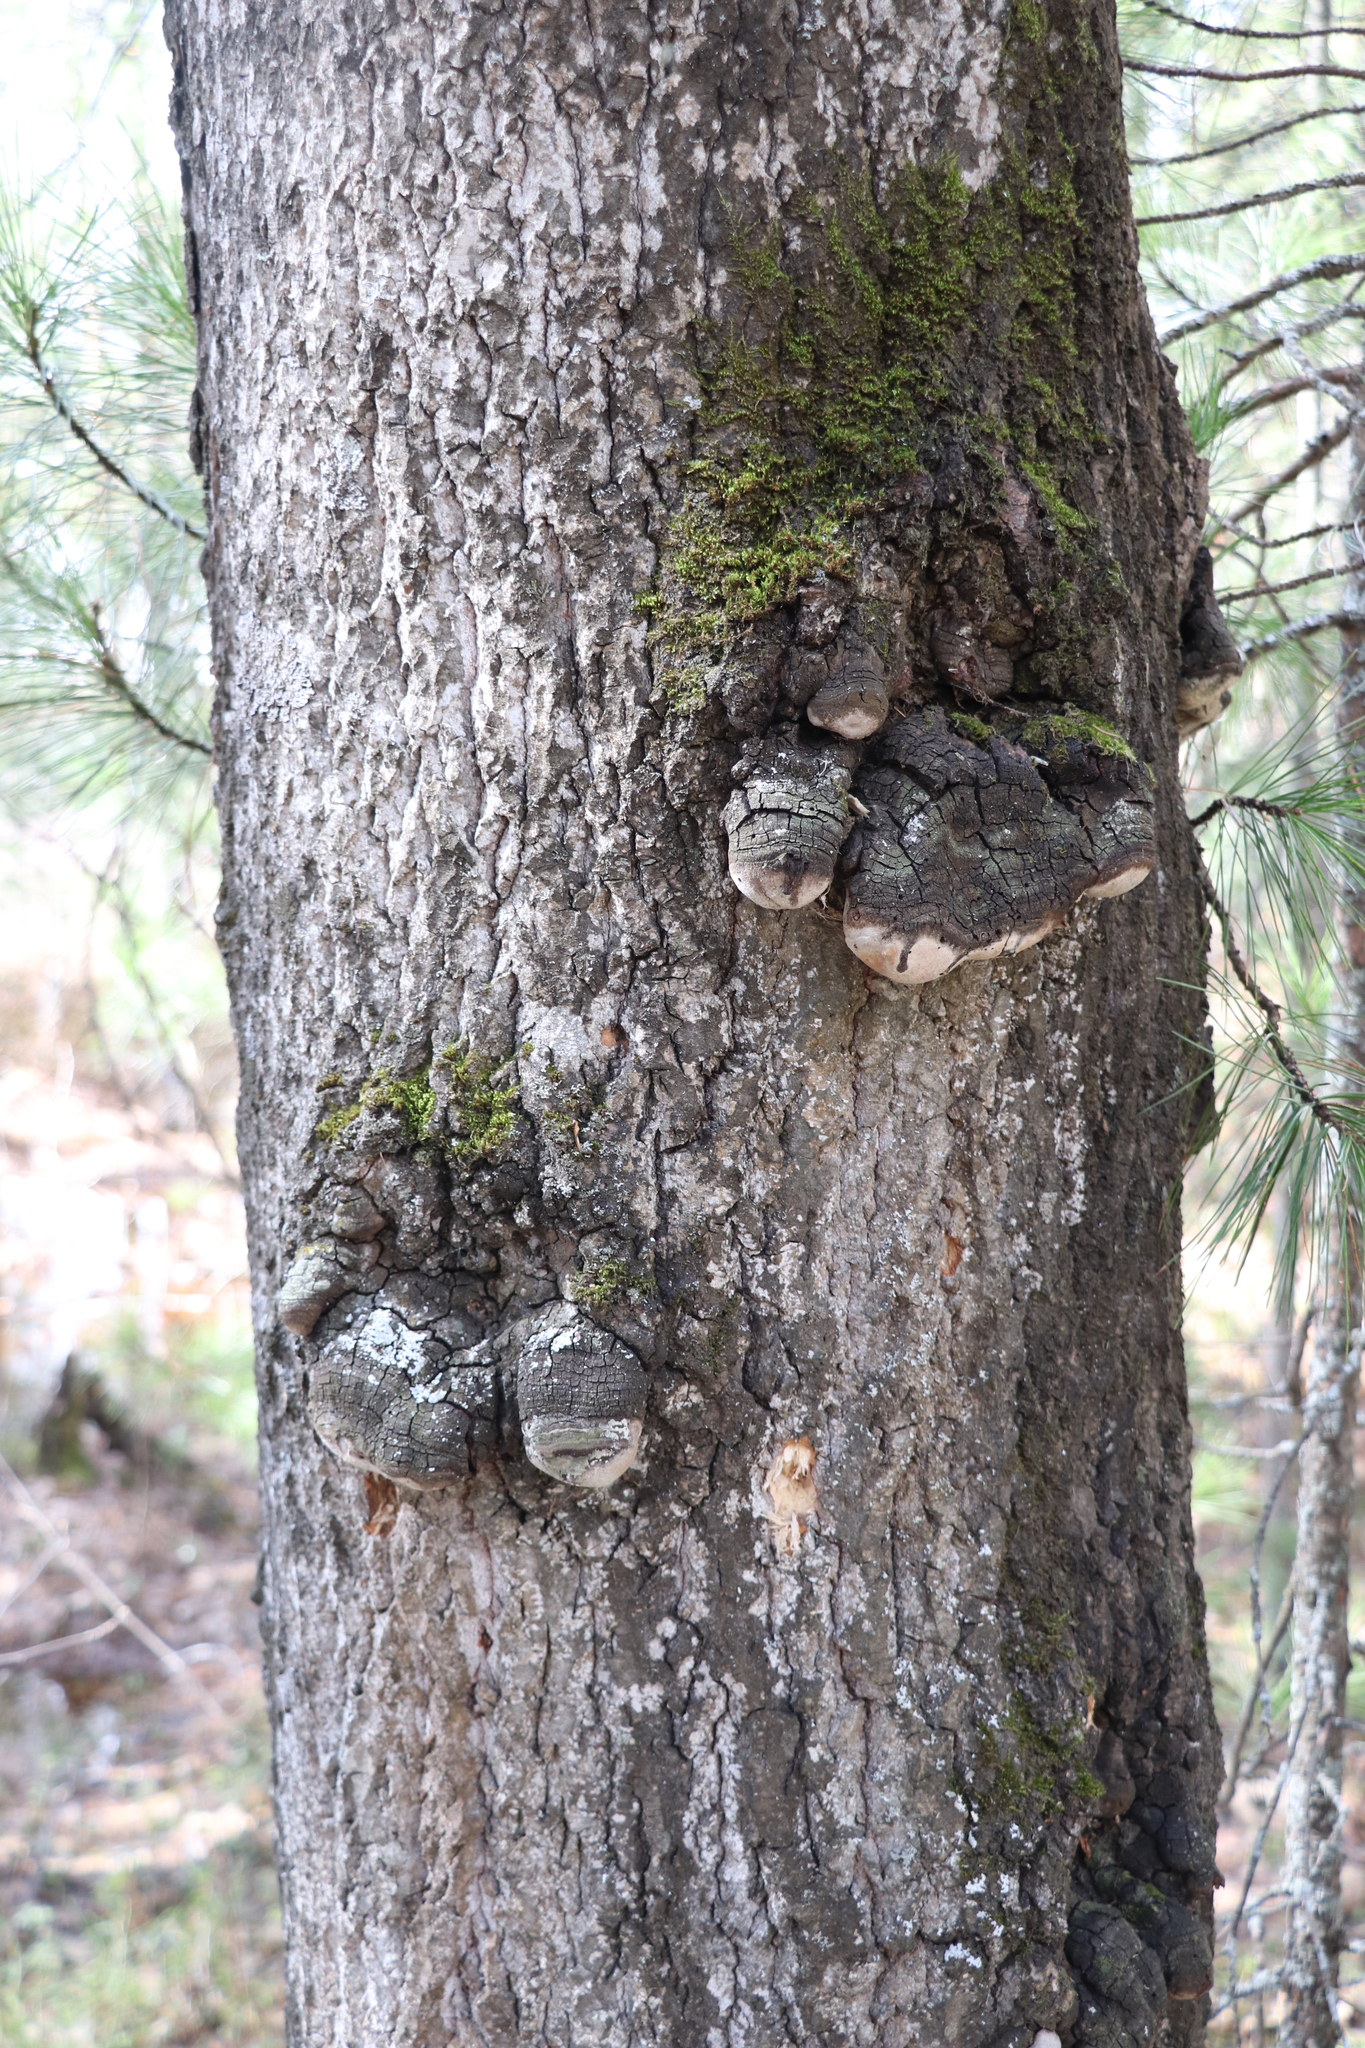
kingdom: Fungi
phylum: Basidiomycota
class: Agaricomycetes
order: Hymenochaetales
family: Hymenochaetaceae
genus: Phellinus
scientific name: Phellinus tremulae
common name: Aspen bracket
